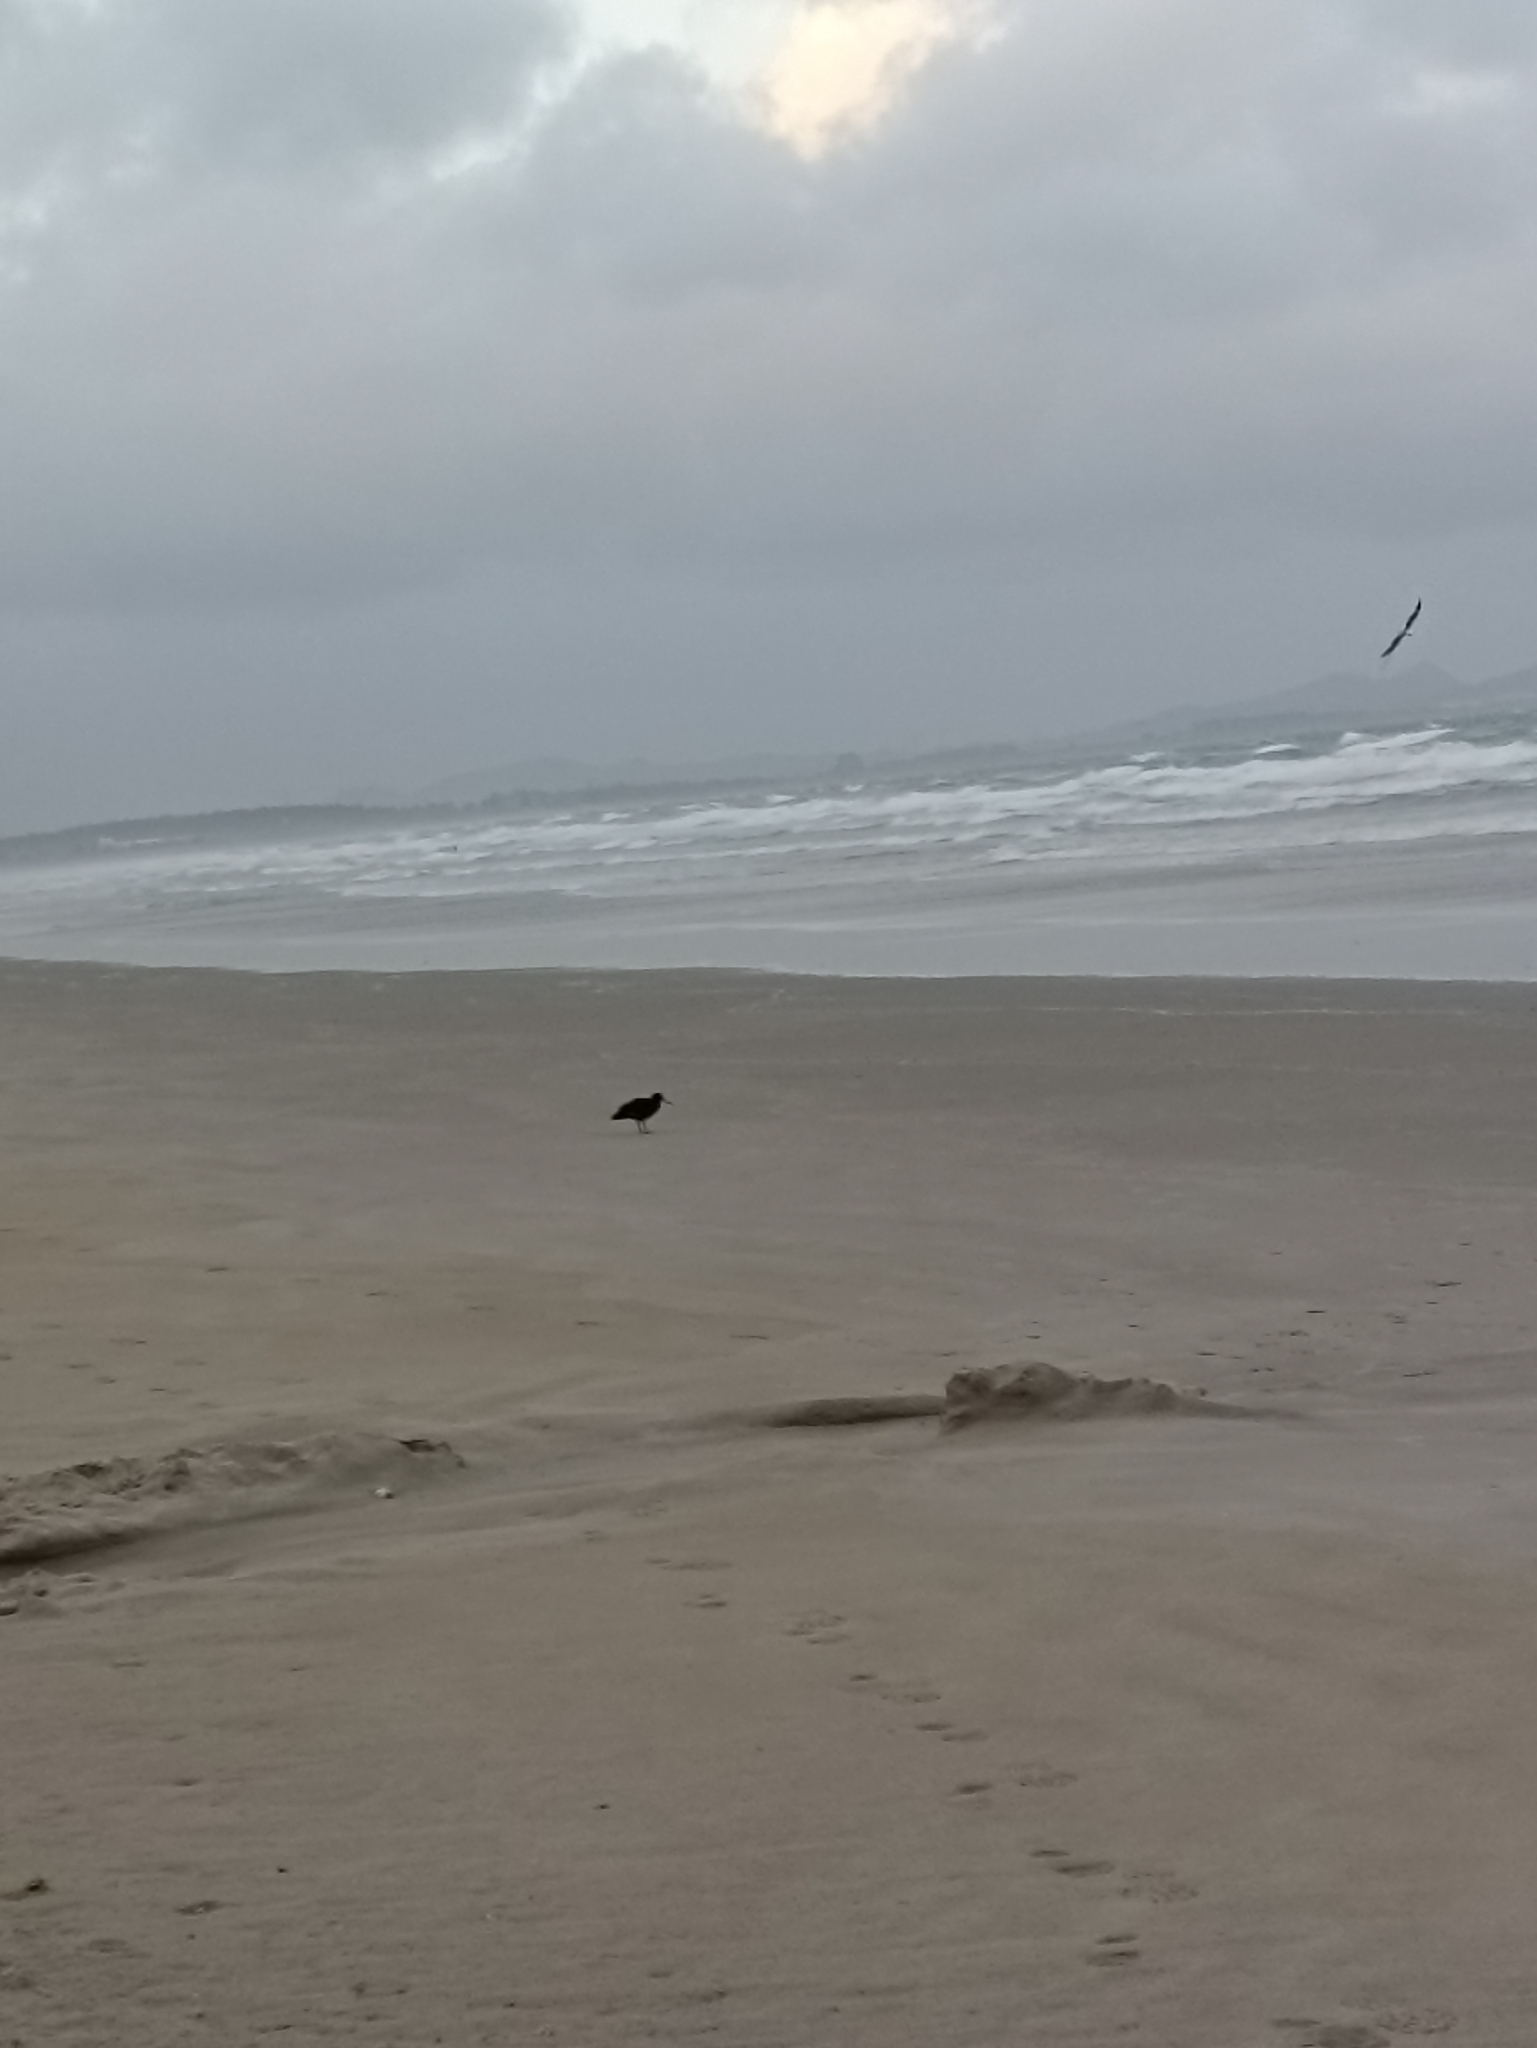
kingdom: Animalia
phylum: Chordata
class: Aves
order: Charadriiformes
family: Haematopodidae
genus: Haematopus
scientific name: Haematopus unicolor
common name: Variable oystercatcher
